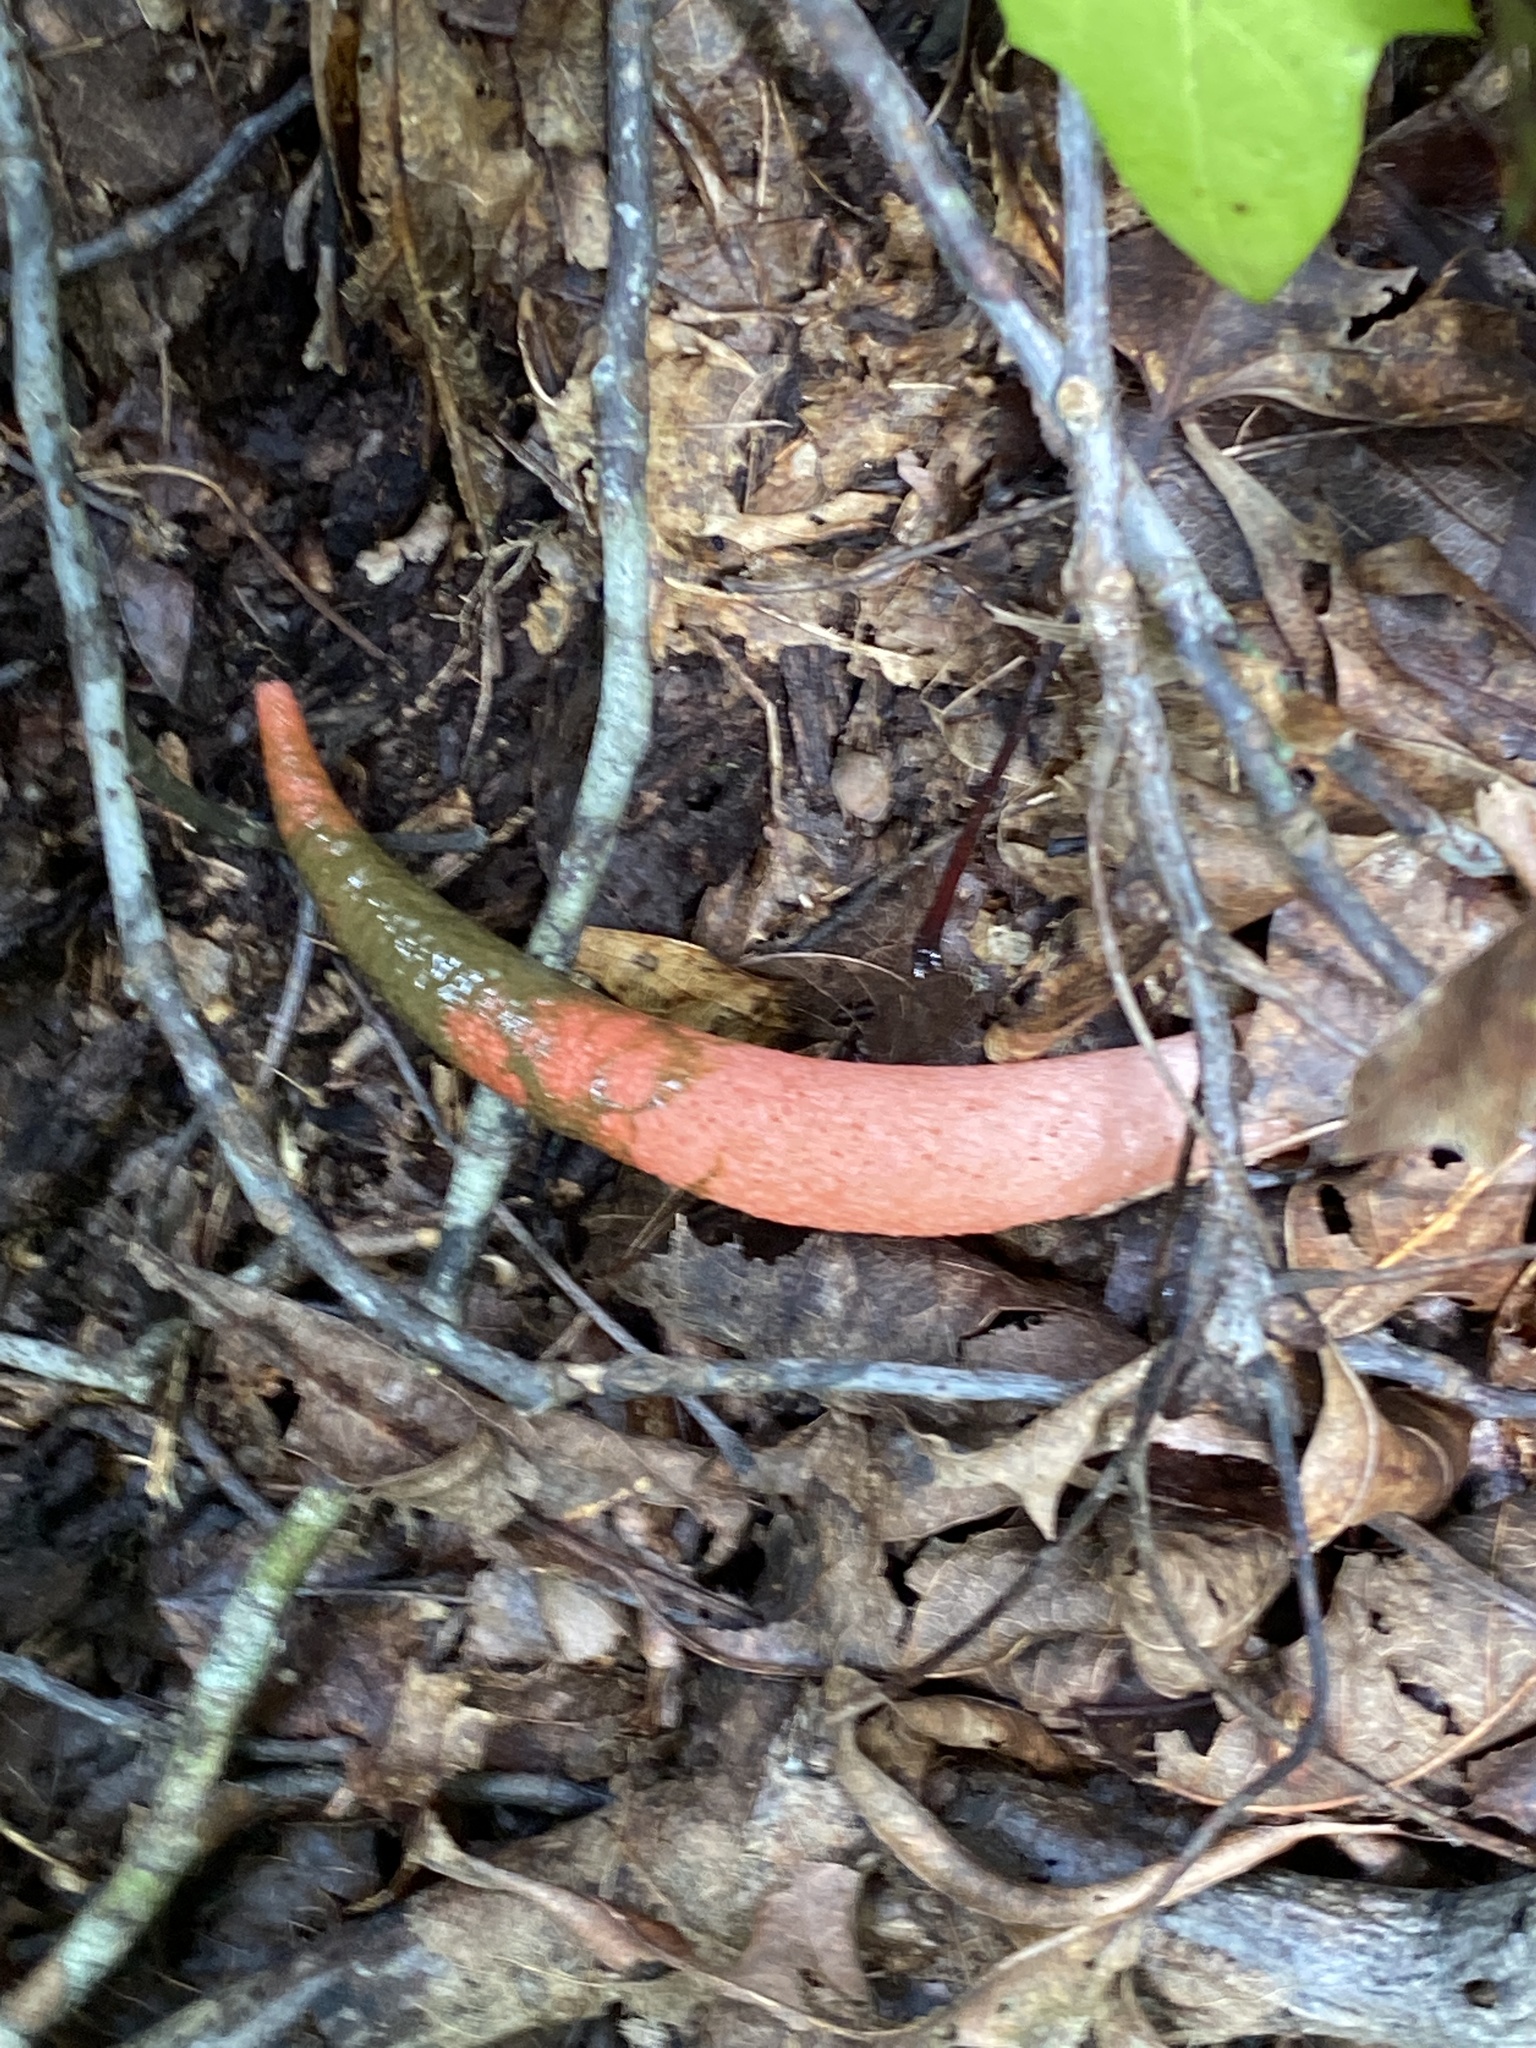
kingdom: Fungi
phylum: Basidiomycota
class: Agaricomycetes
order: Phallales
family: Phallaceae
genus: Mutinus
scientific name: Mutinus elegans
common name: Devil's dipstick
